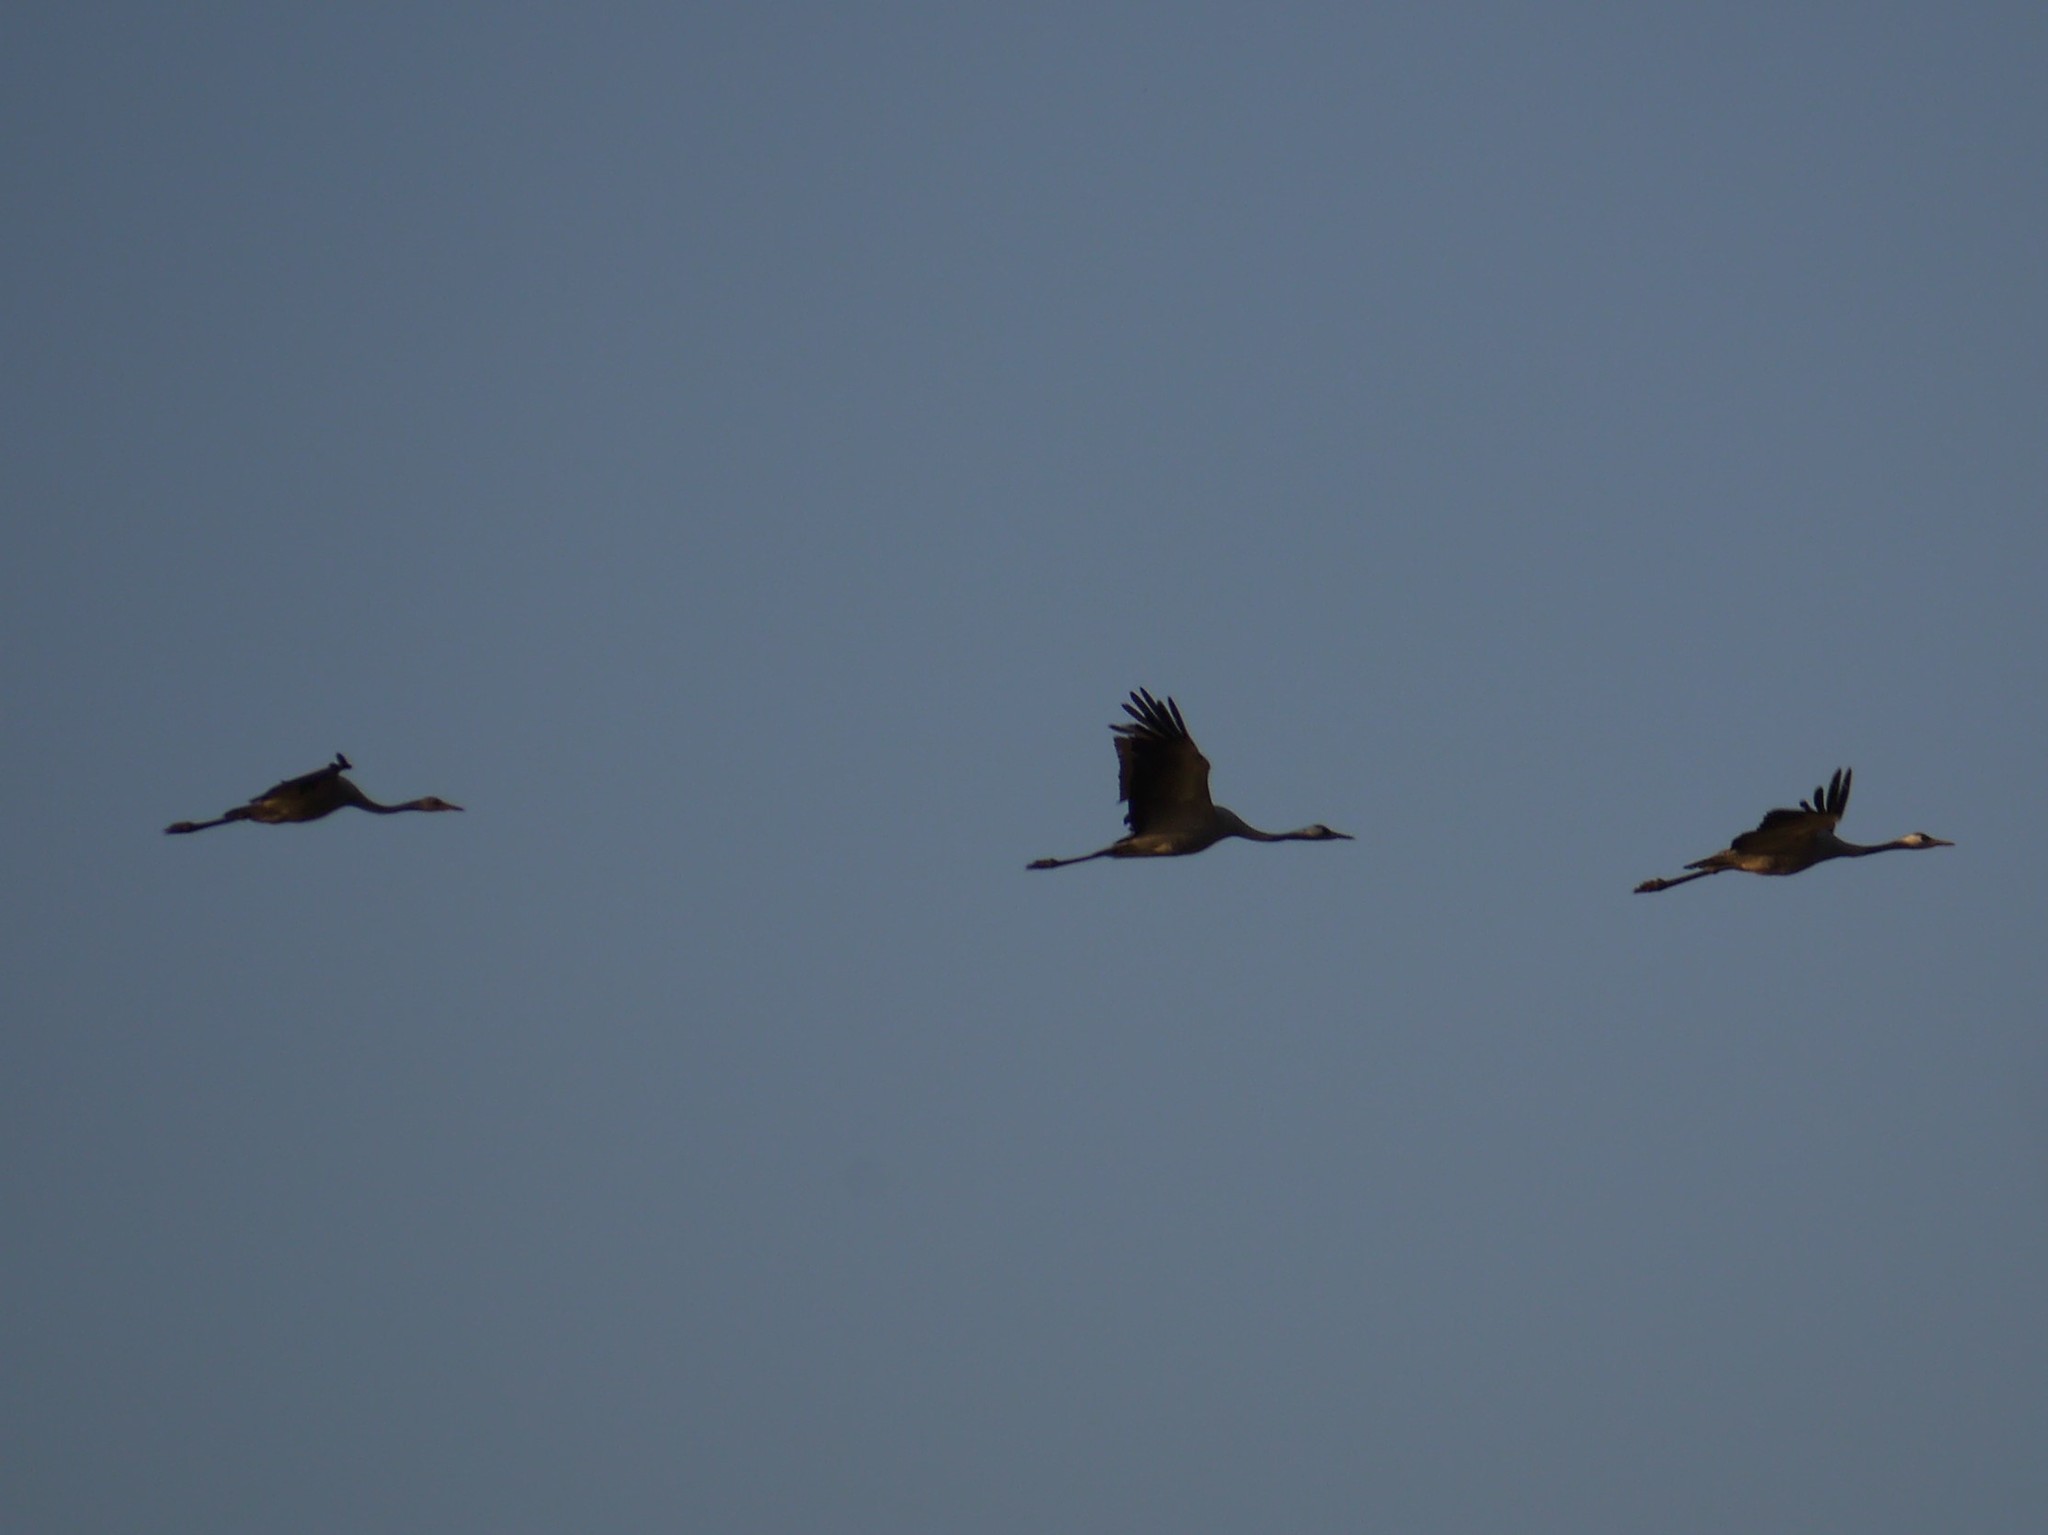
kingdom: Animalia
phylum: Chordata
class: Aves
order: Gruiformes
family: Gruidae
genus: Grus
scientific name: Grus grus
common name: Common crane
